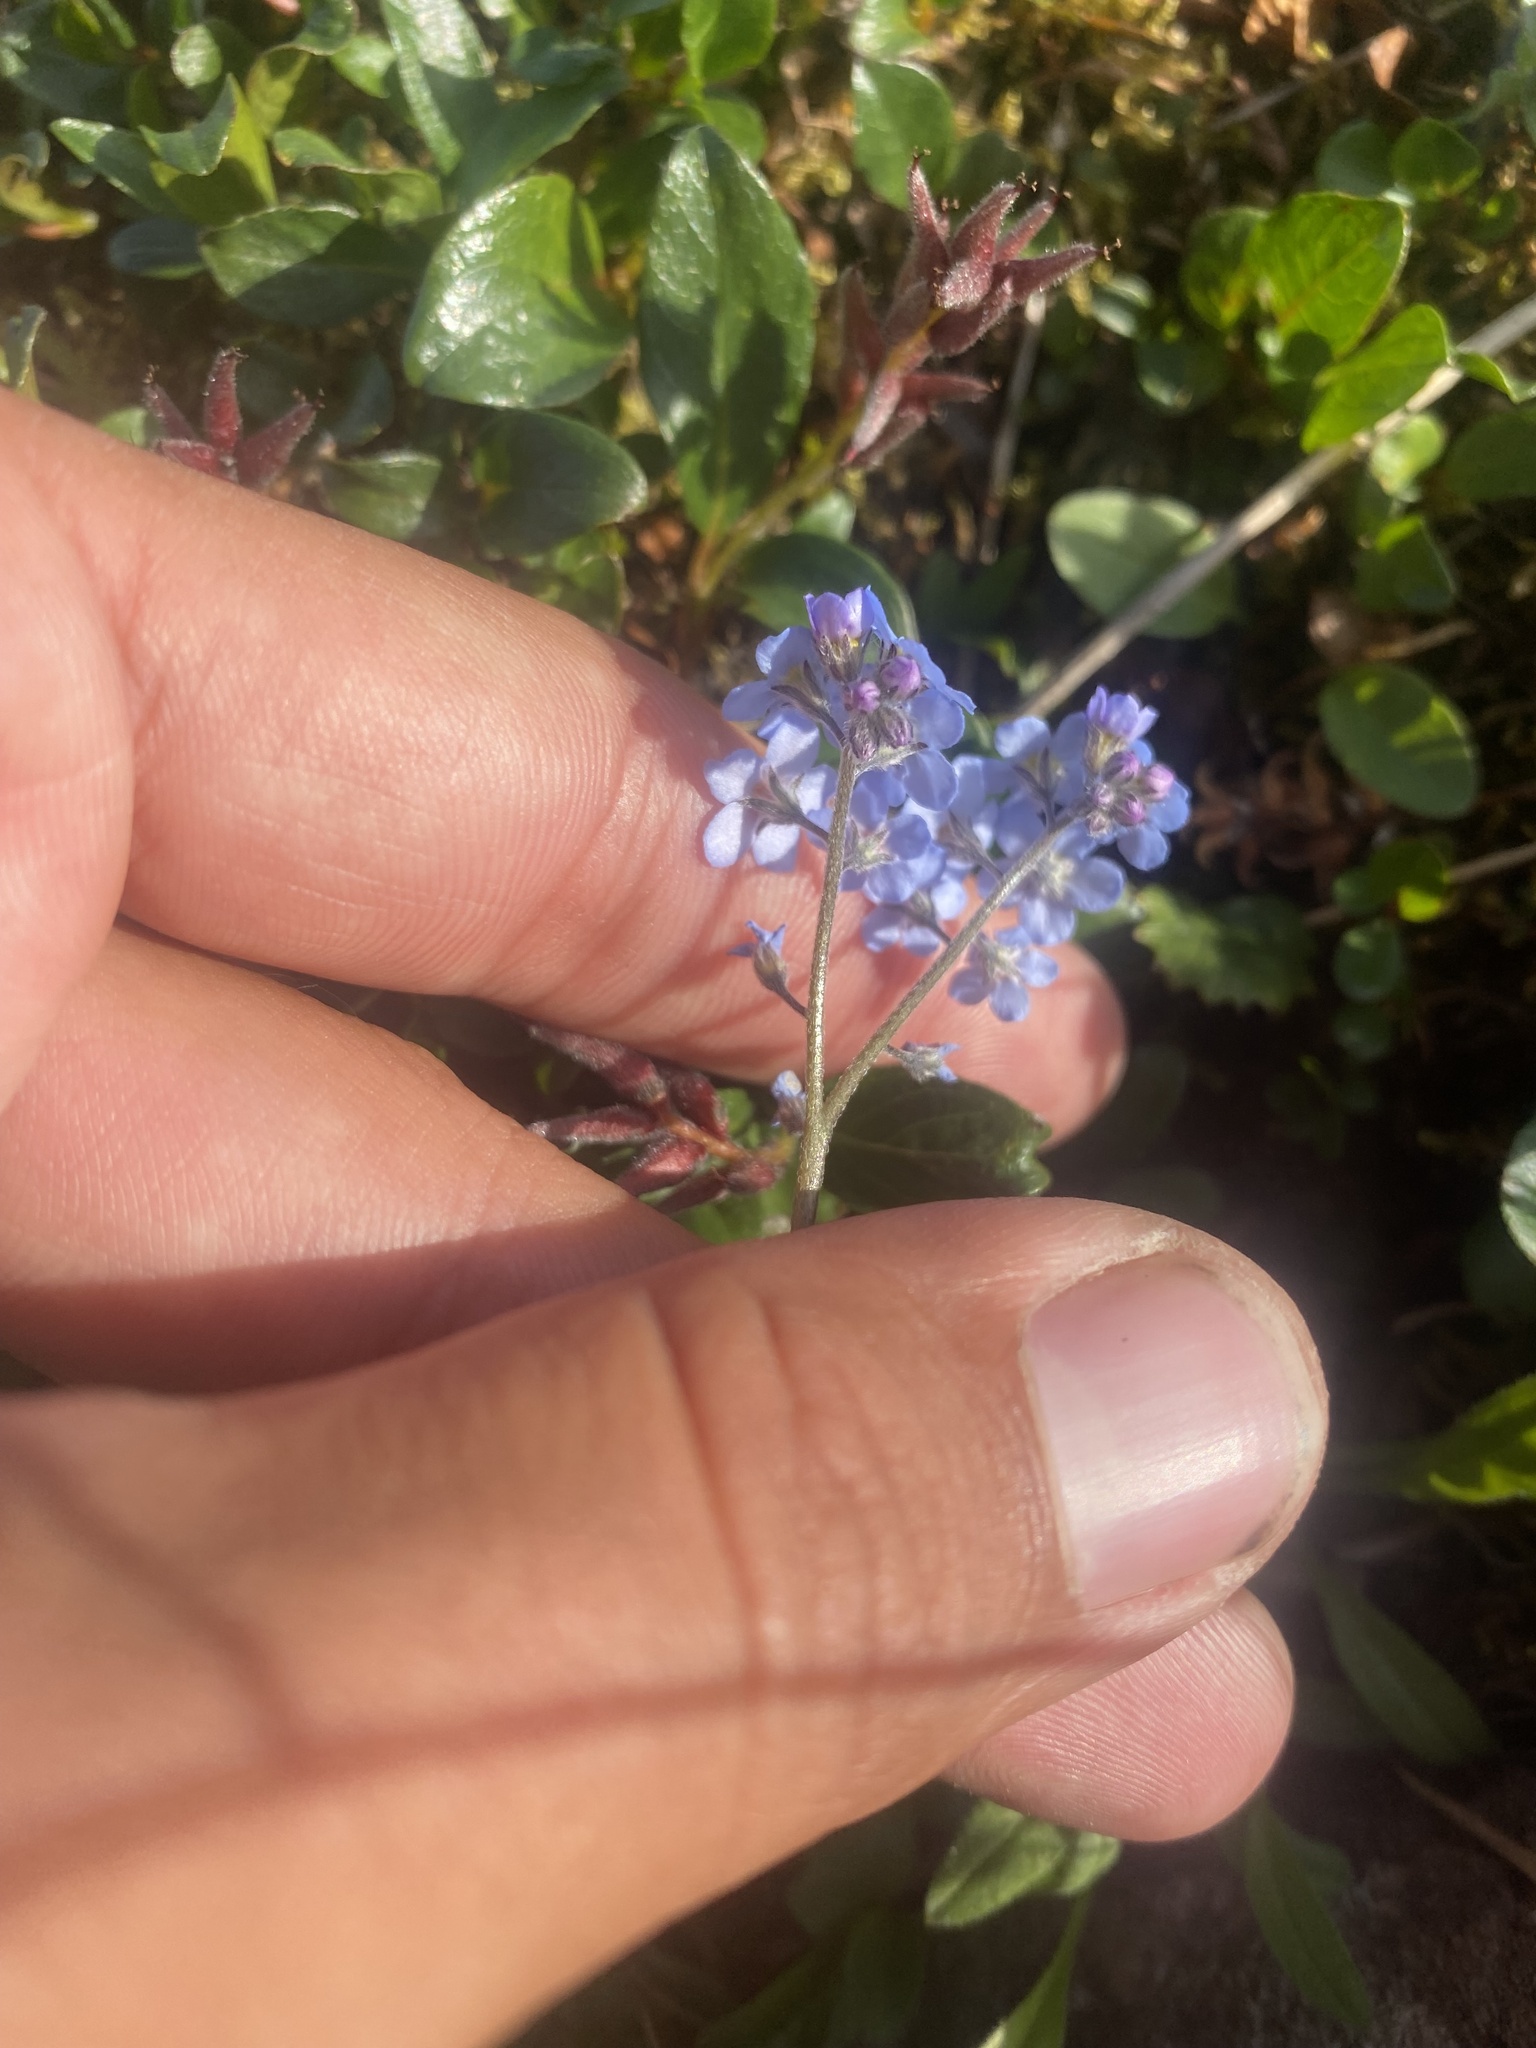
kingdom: Plantae
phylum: Tracheophyta
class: Magnoliopsida
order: Boraginales
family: Boraginaceae
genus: Myosotis
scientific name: Myosotis asiatica
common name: Asian forget-me-not
